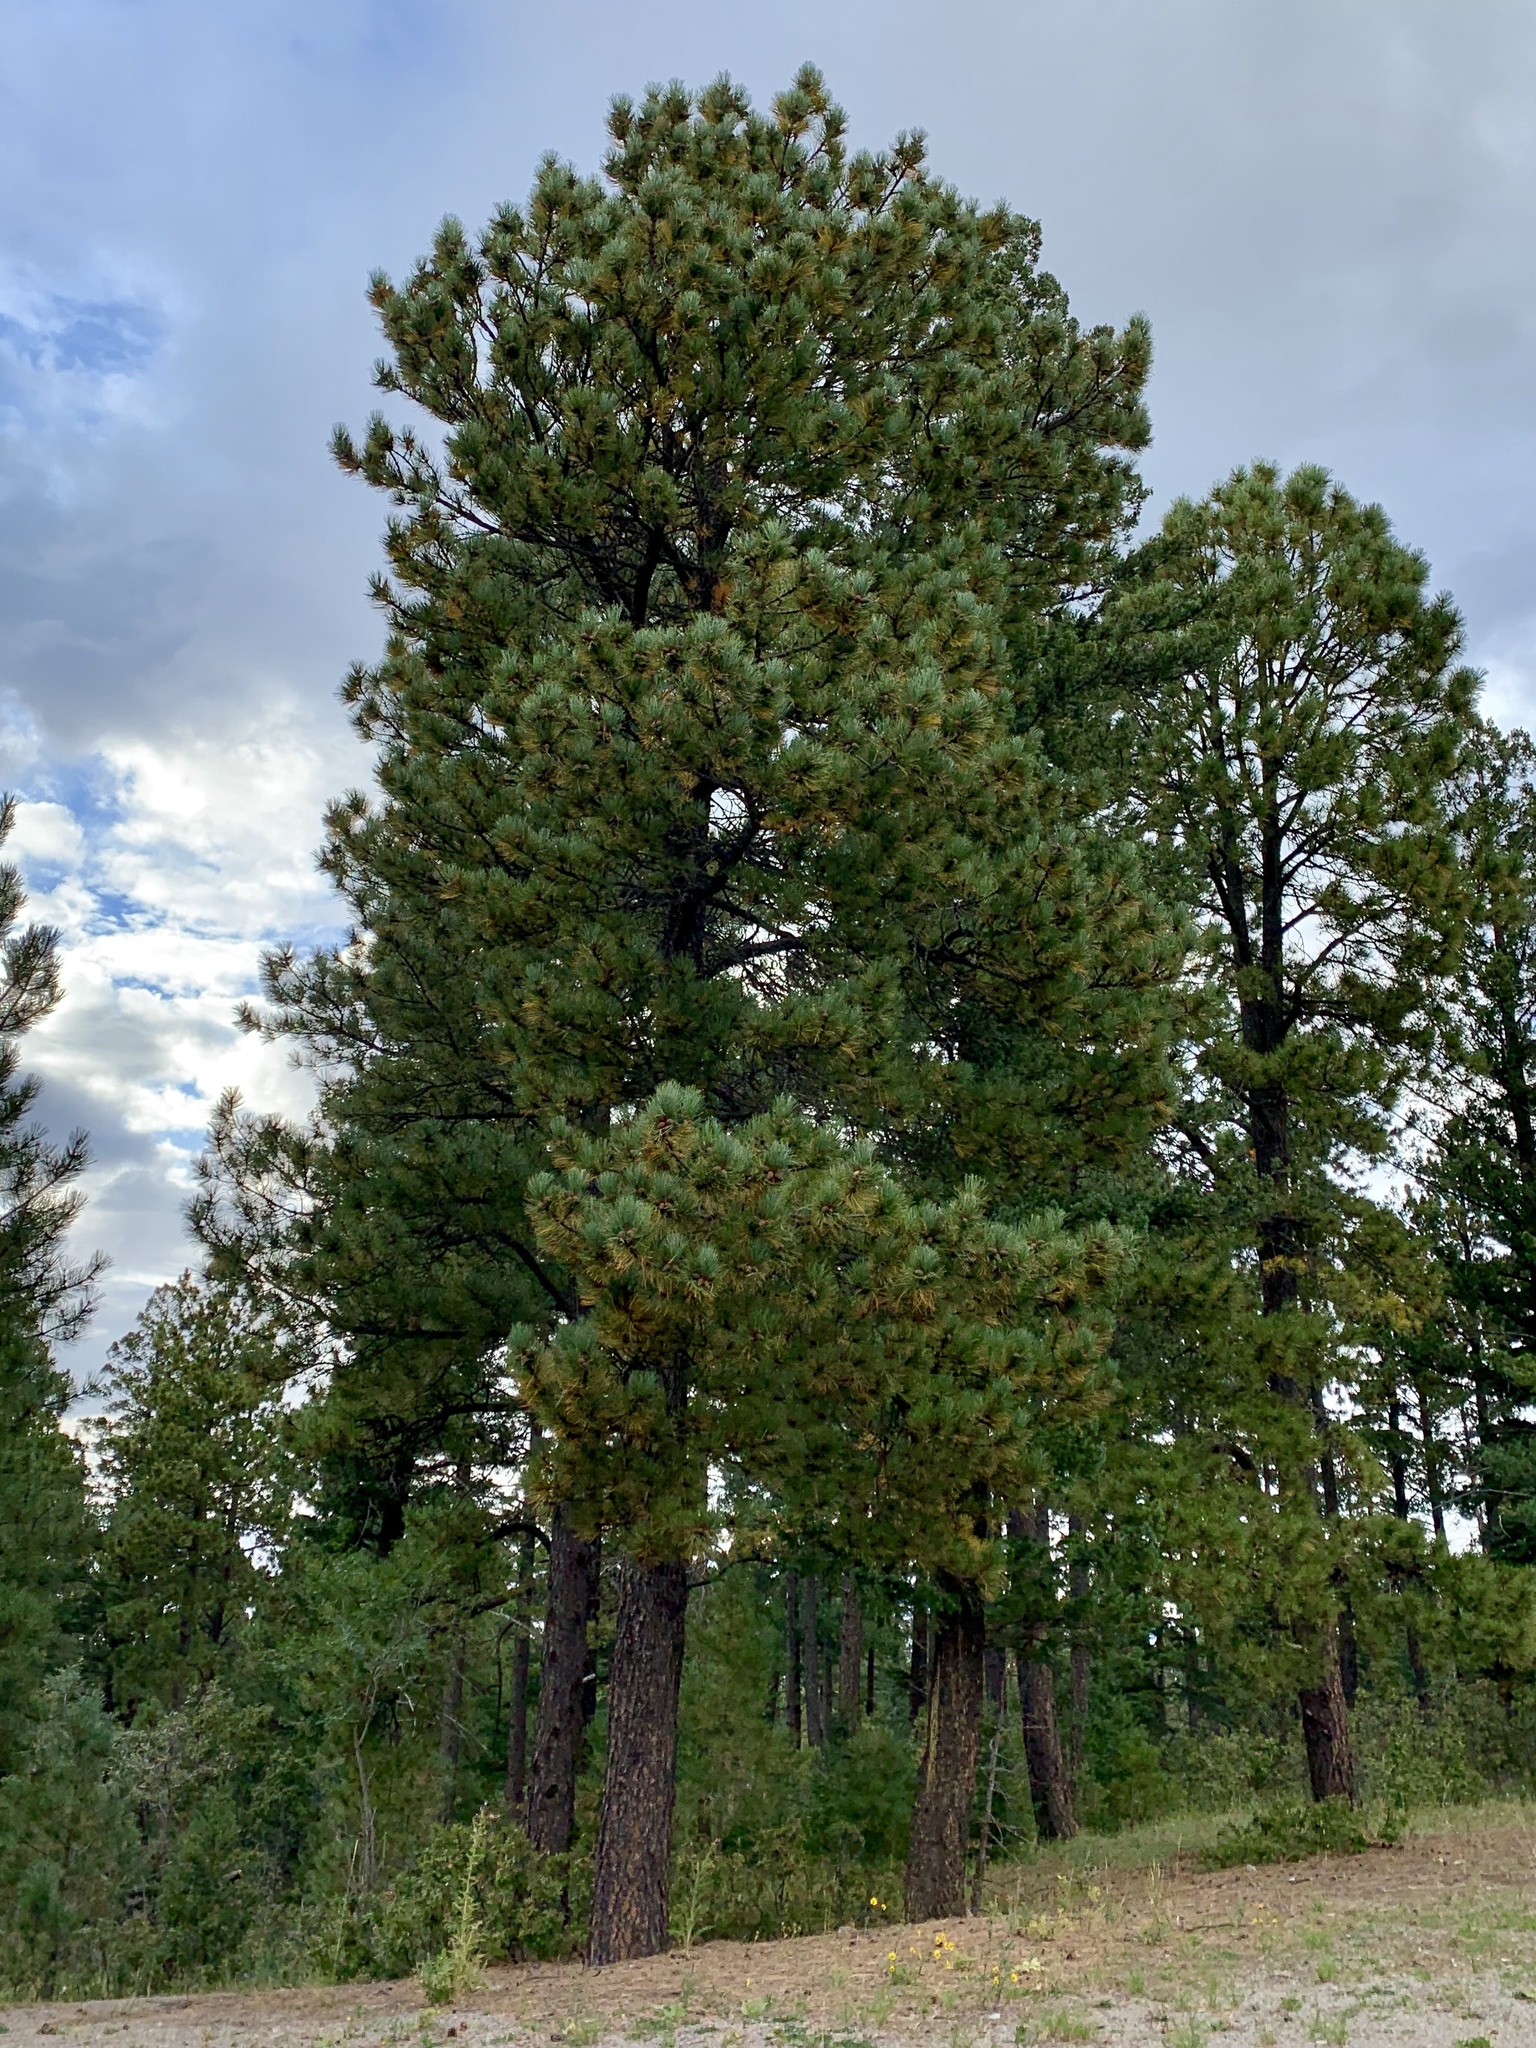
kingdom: Plantae
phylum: Tracheophyta
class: Pinopsida
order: Pinales
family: Pinaceae
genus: Pinus
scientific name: Pinus ponderosa
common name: Western yellow-pine
